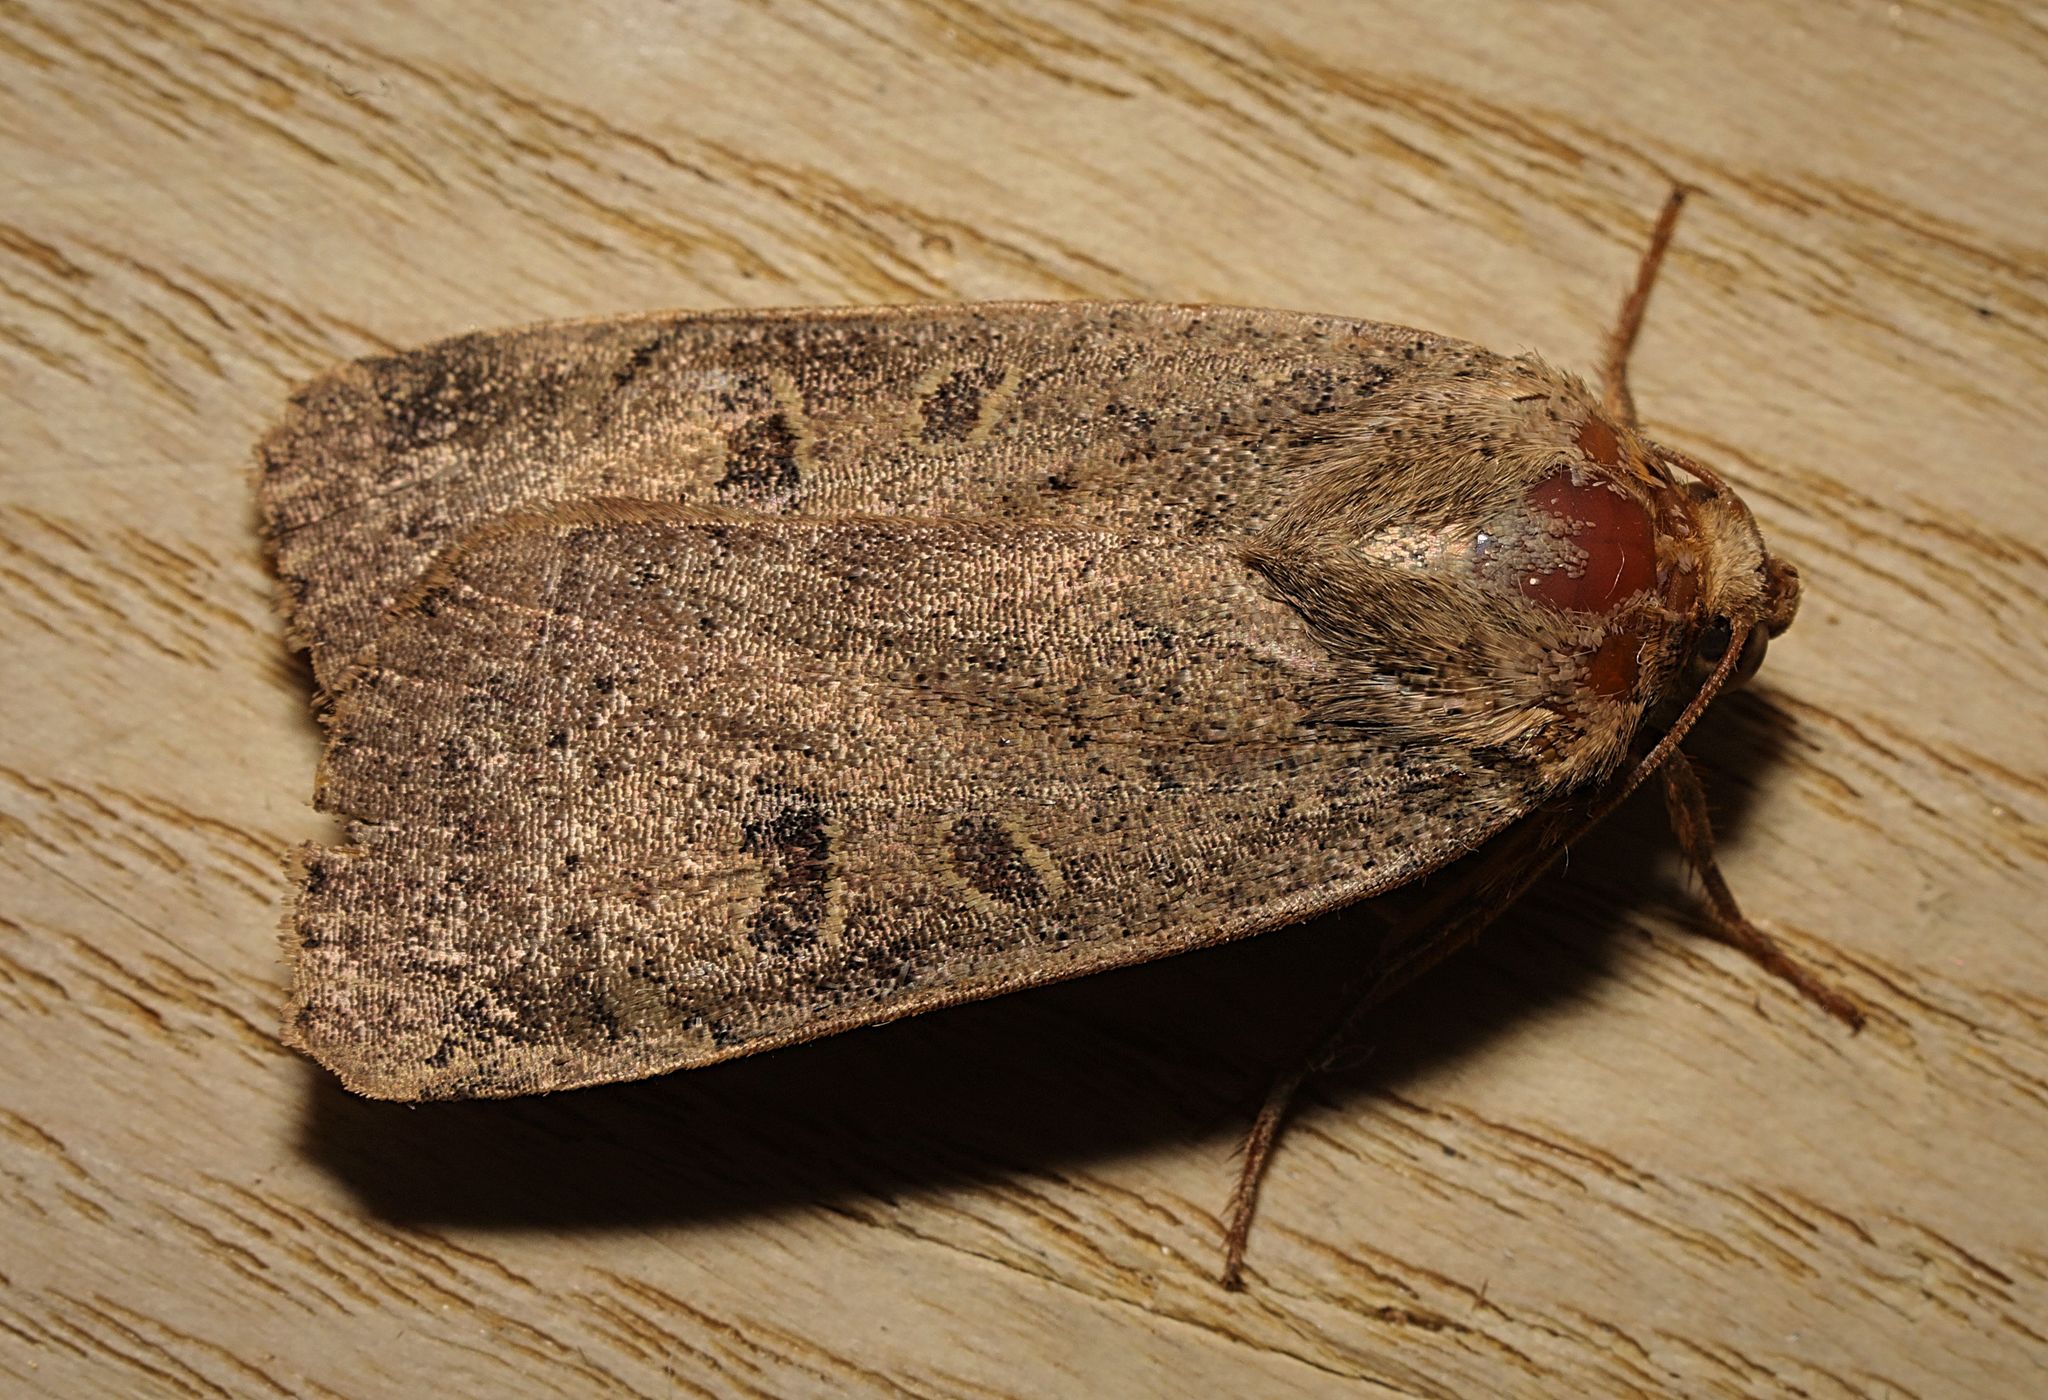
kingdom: Animalia
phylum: Arthropoda
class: Insecta
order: Lepidoptera
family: Noctuidae
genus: Noctua
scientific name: Noctua comes
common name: Lesser yellow underwing
